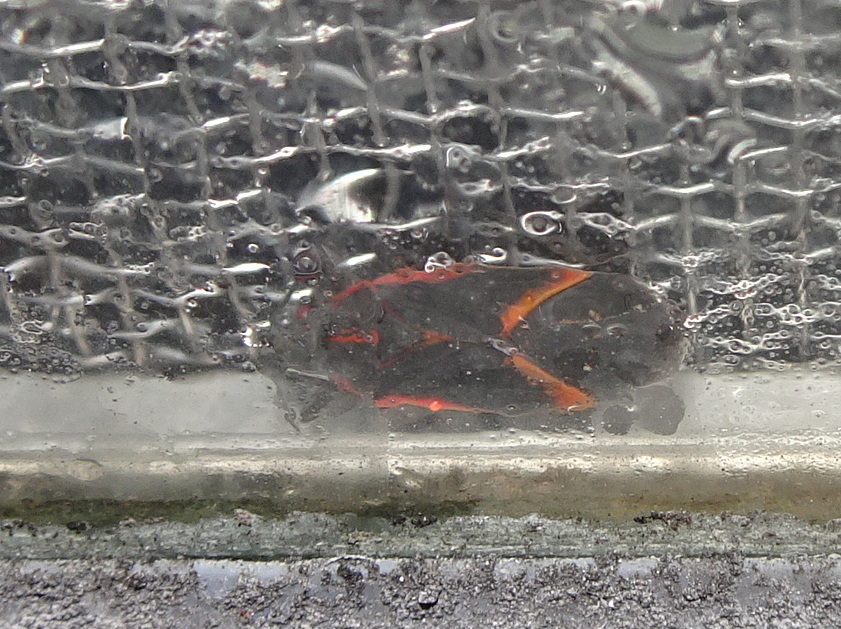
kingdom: Animalia
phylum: Arthropoda
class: Insecta
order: Hemiptera
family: Rhopalidae
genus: Boisea
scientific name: Boisea trivittata
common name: Boxelder bug
